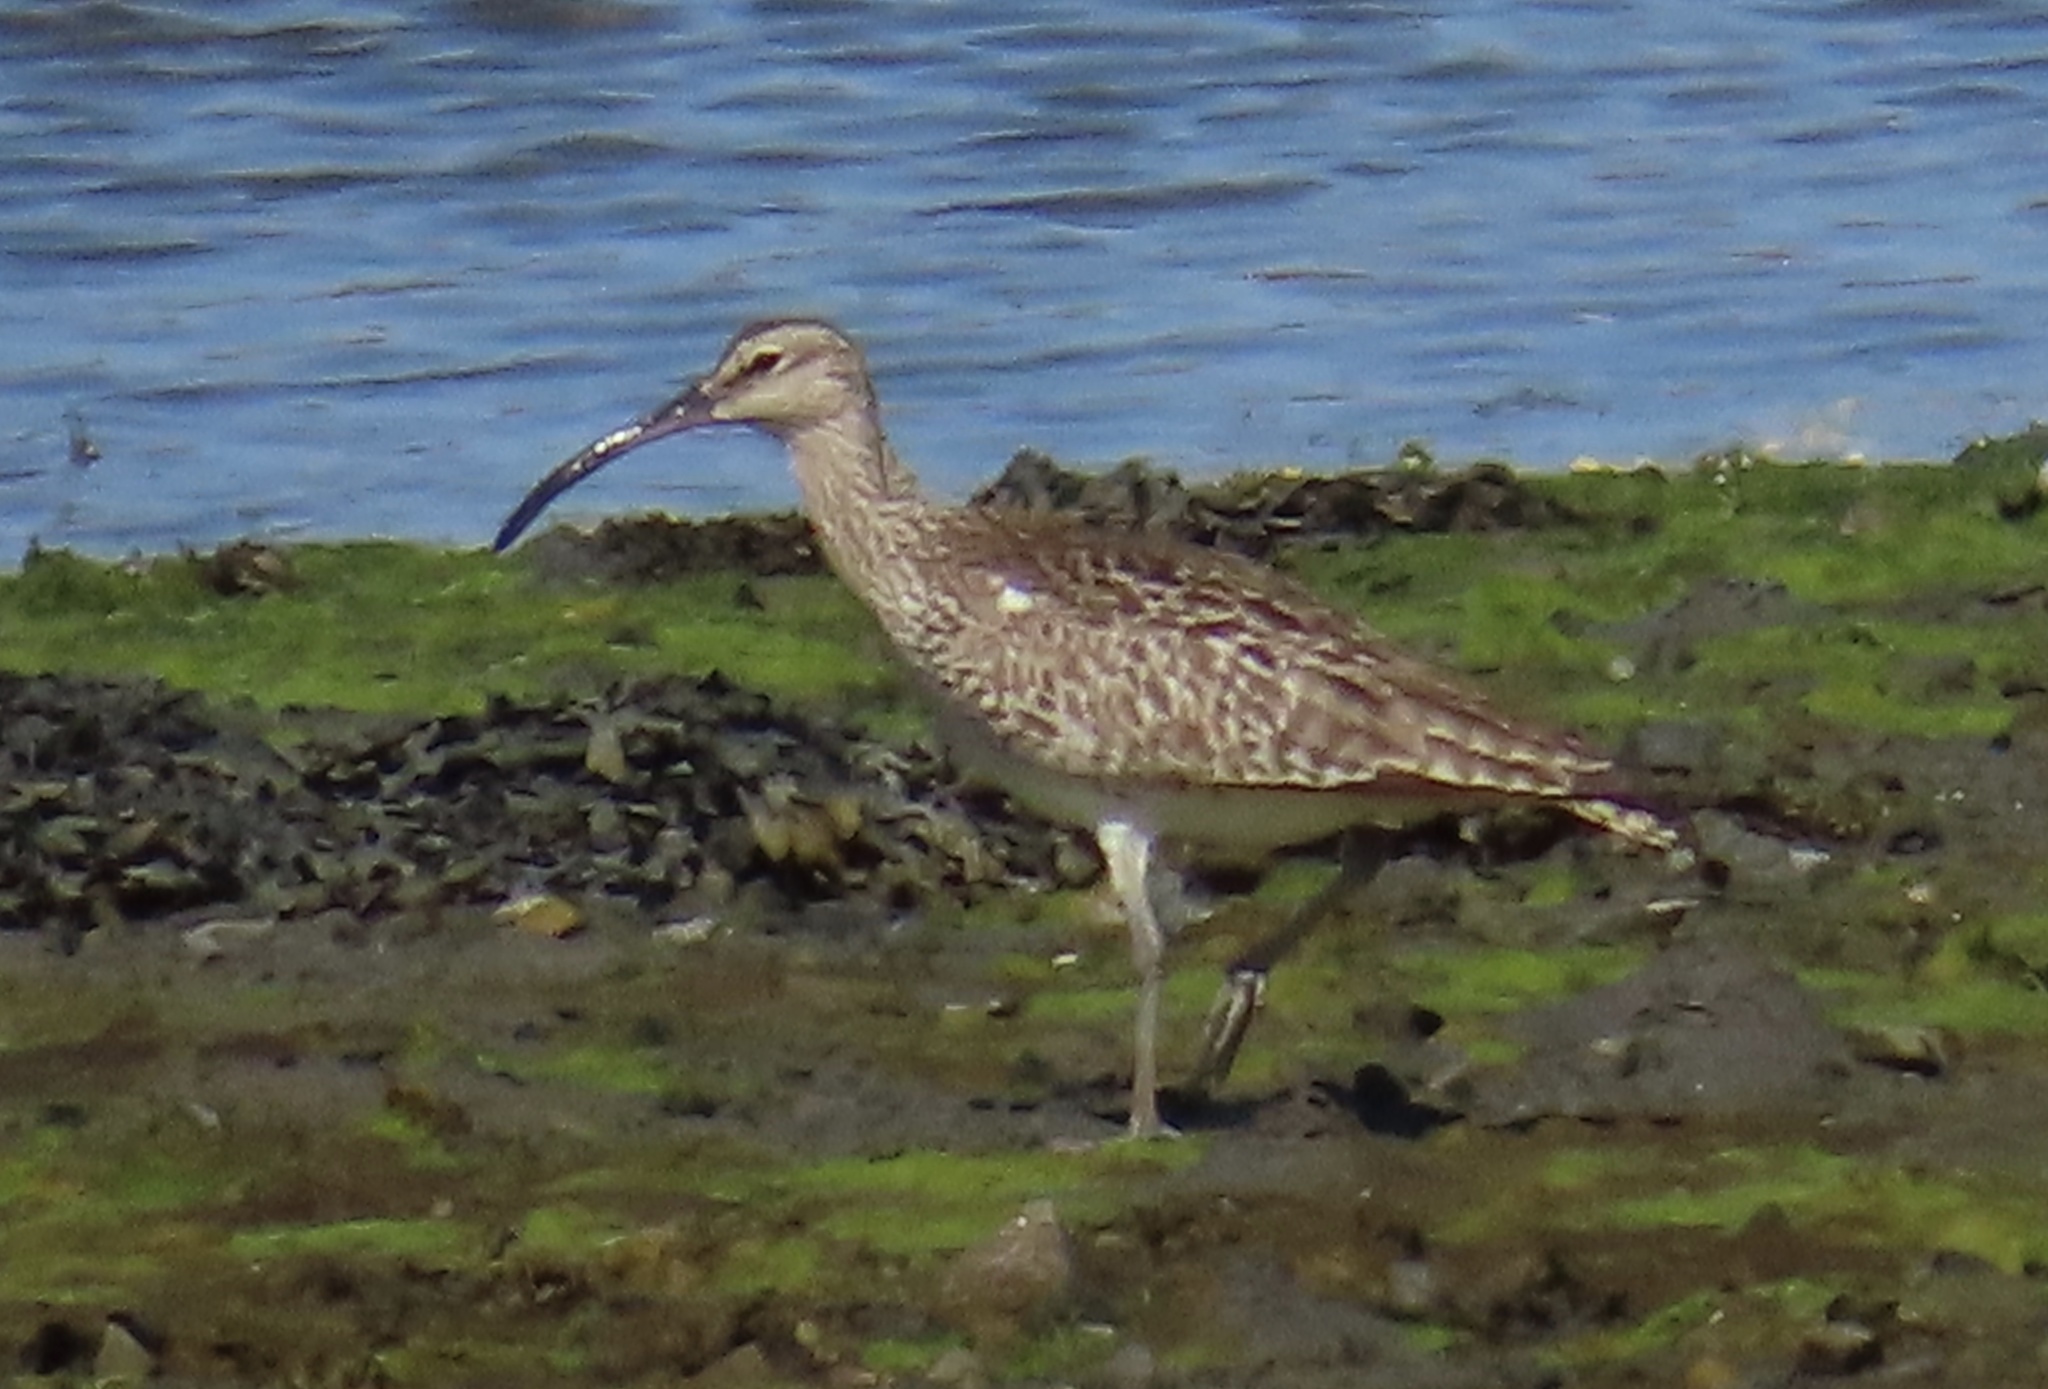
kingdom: Animalia
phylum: Chordata
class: Aves
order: Charadriiformes
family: Scolopacidae
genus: Numenius
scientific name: Numenius phaeopus
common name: Whimbrel
